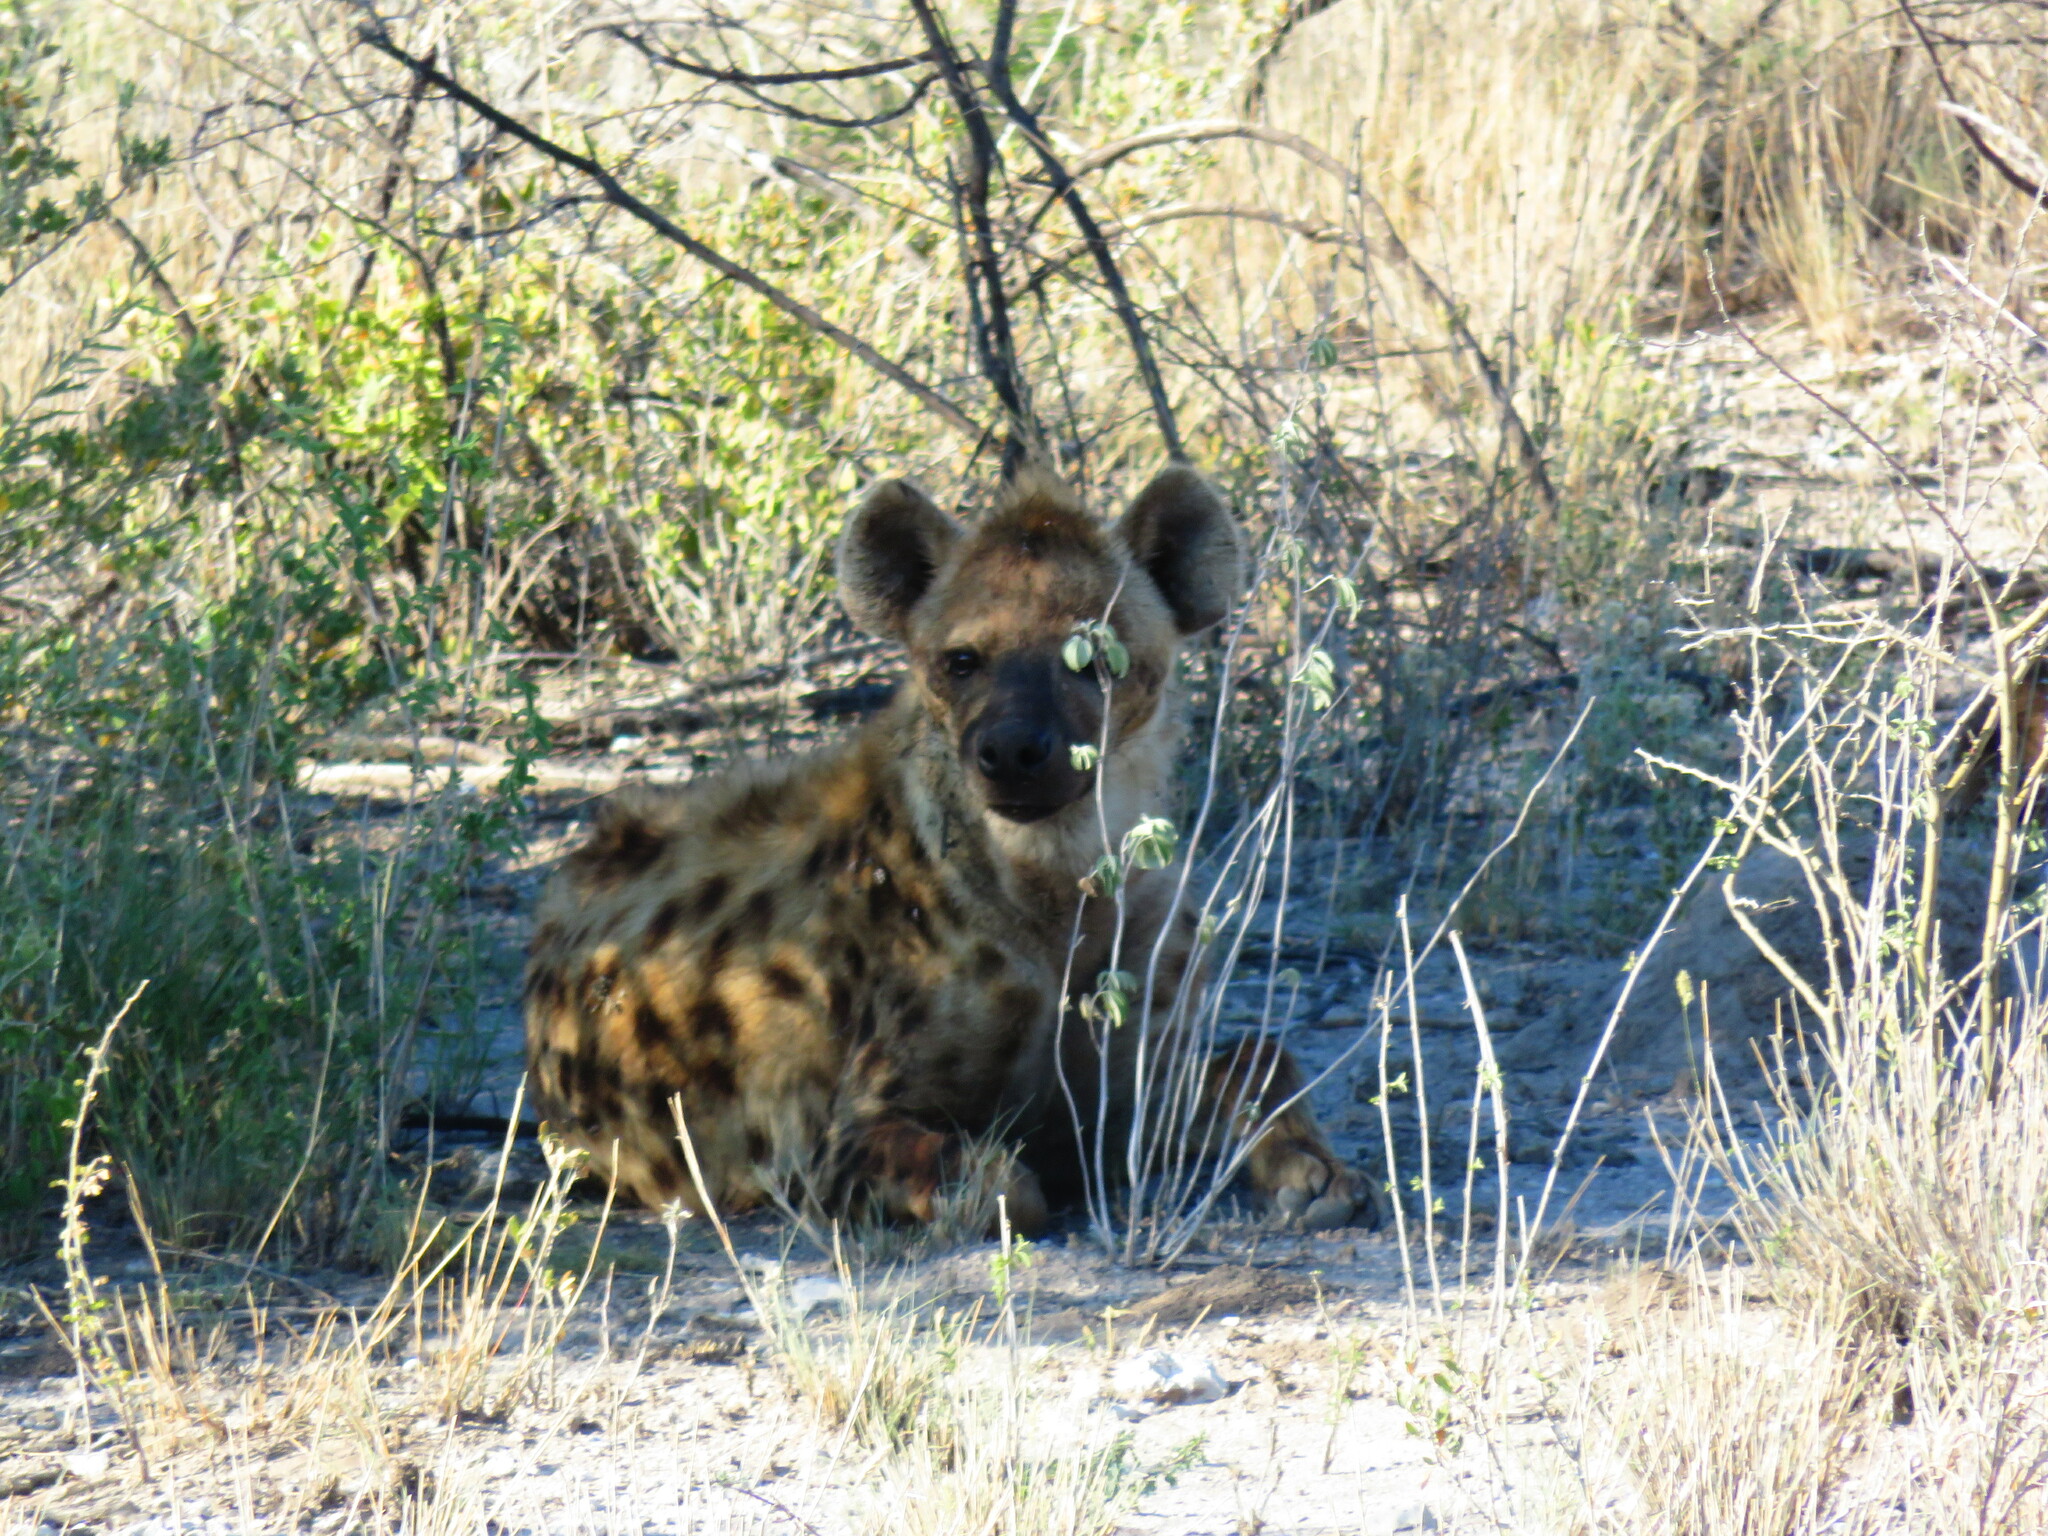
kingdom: Animalia
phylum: Chordata
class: Mammalia
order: Carnivora
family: Hyaenidae
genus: Crocuta
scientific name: Crocuta crocuta
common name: Spotted hyaena
